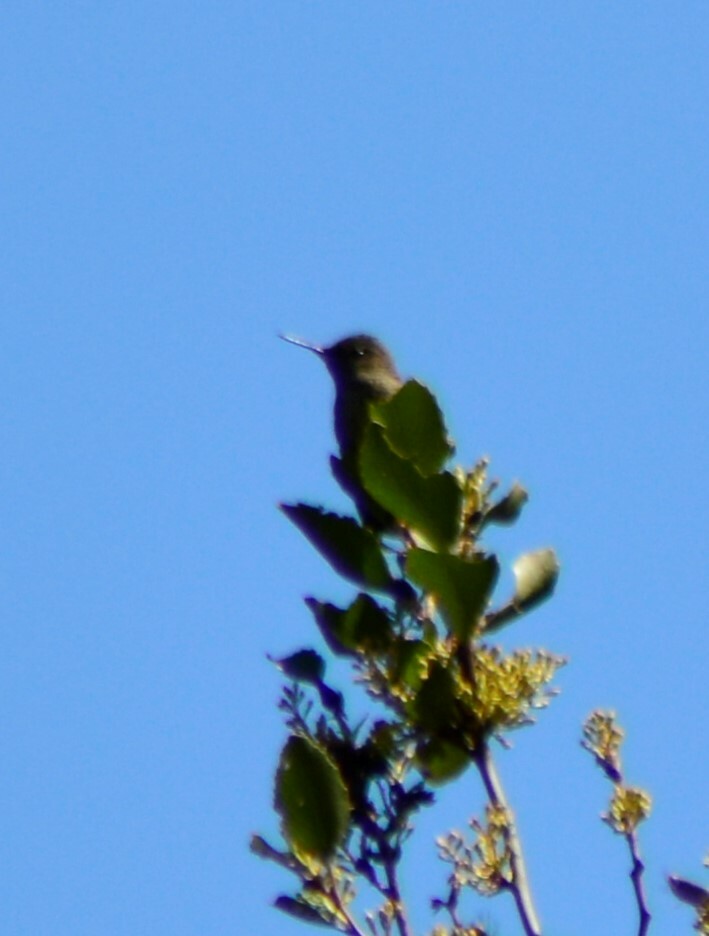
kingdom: Animalia
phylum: Chordata
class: Aves
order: Apodiformes
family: Trochilidae
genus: Sephanoides
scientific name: Sephanoides sephaniodes
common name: Green-backed firecrown
